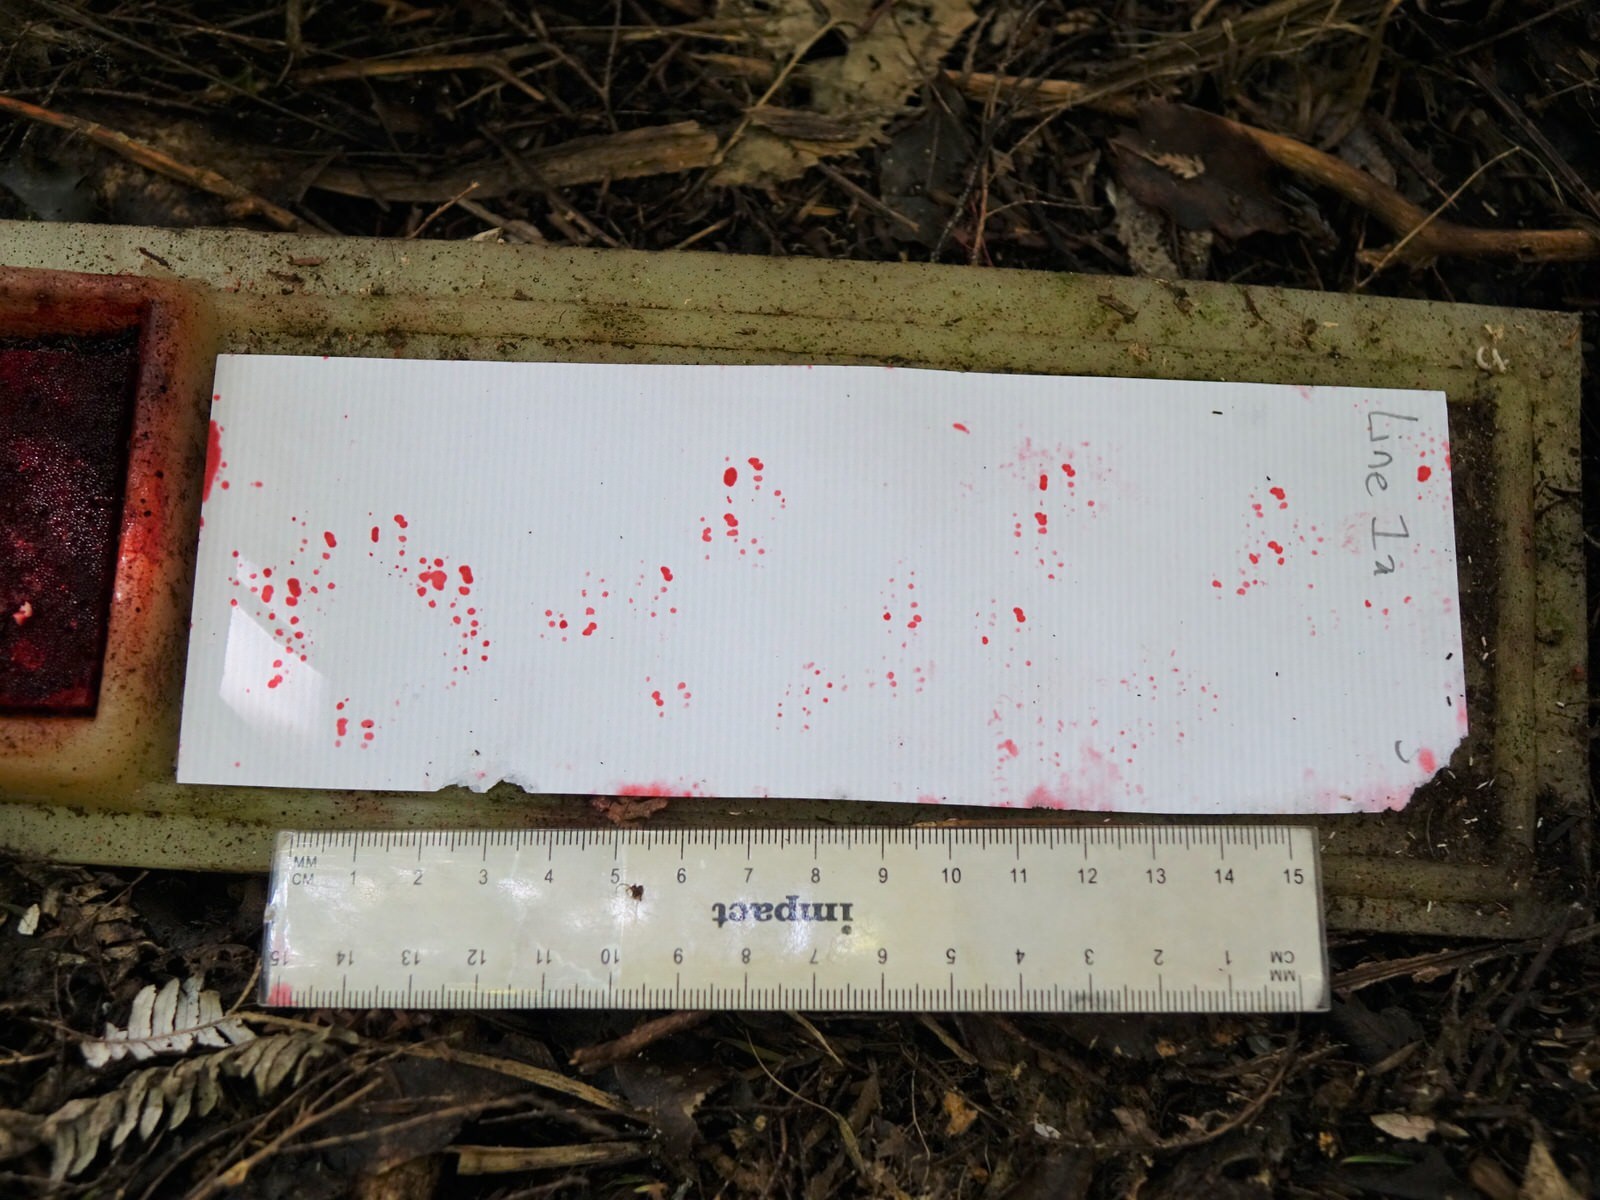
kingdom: Animalia
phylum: Chordata
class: Mammalia
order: Rodentia
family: Muridae
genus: Mus
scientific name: Mus musculus
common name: House mouse
